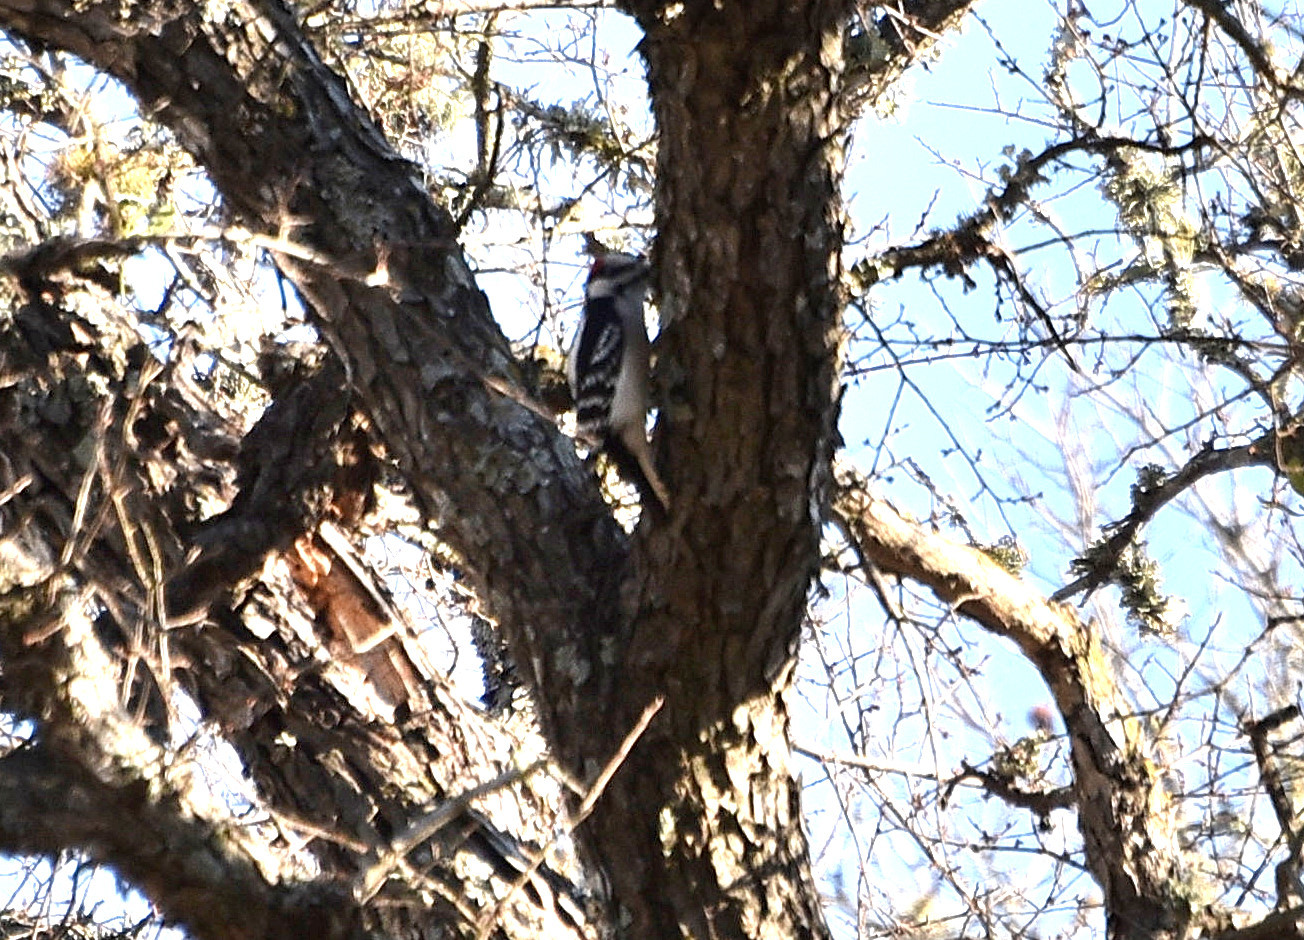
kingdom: Animalia
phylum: Chordata
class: Aves
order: Piciformes
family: Picidae
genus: Dryobates
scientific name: Dryobates pubescens
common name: Downy woodpecker
